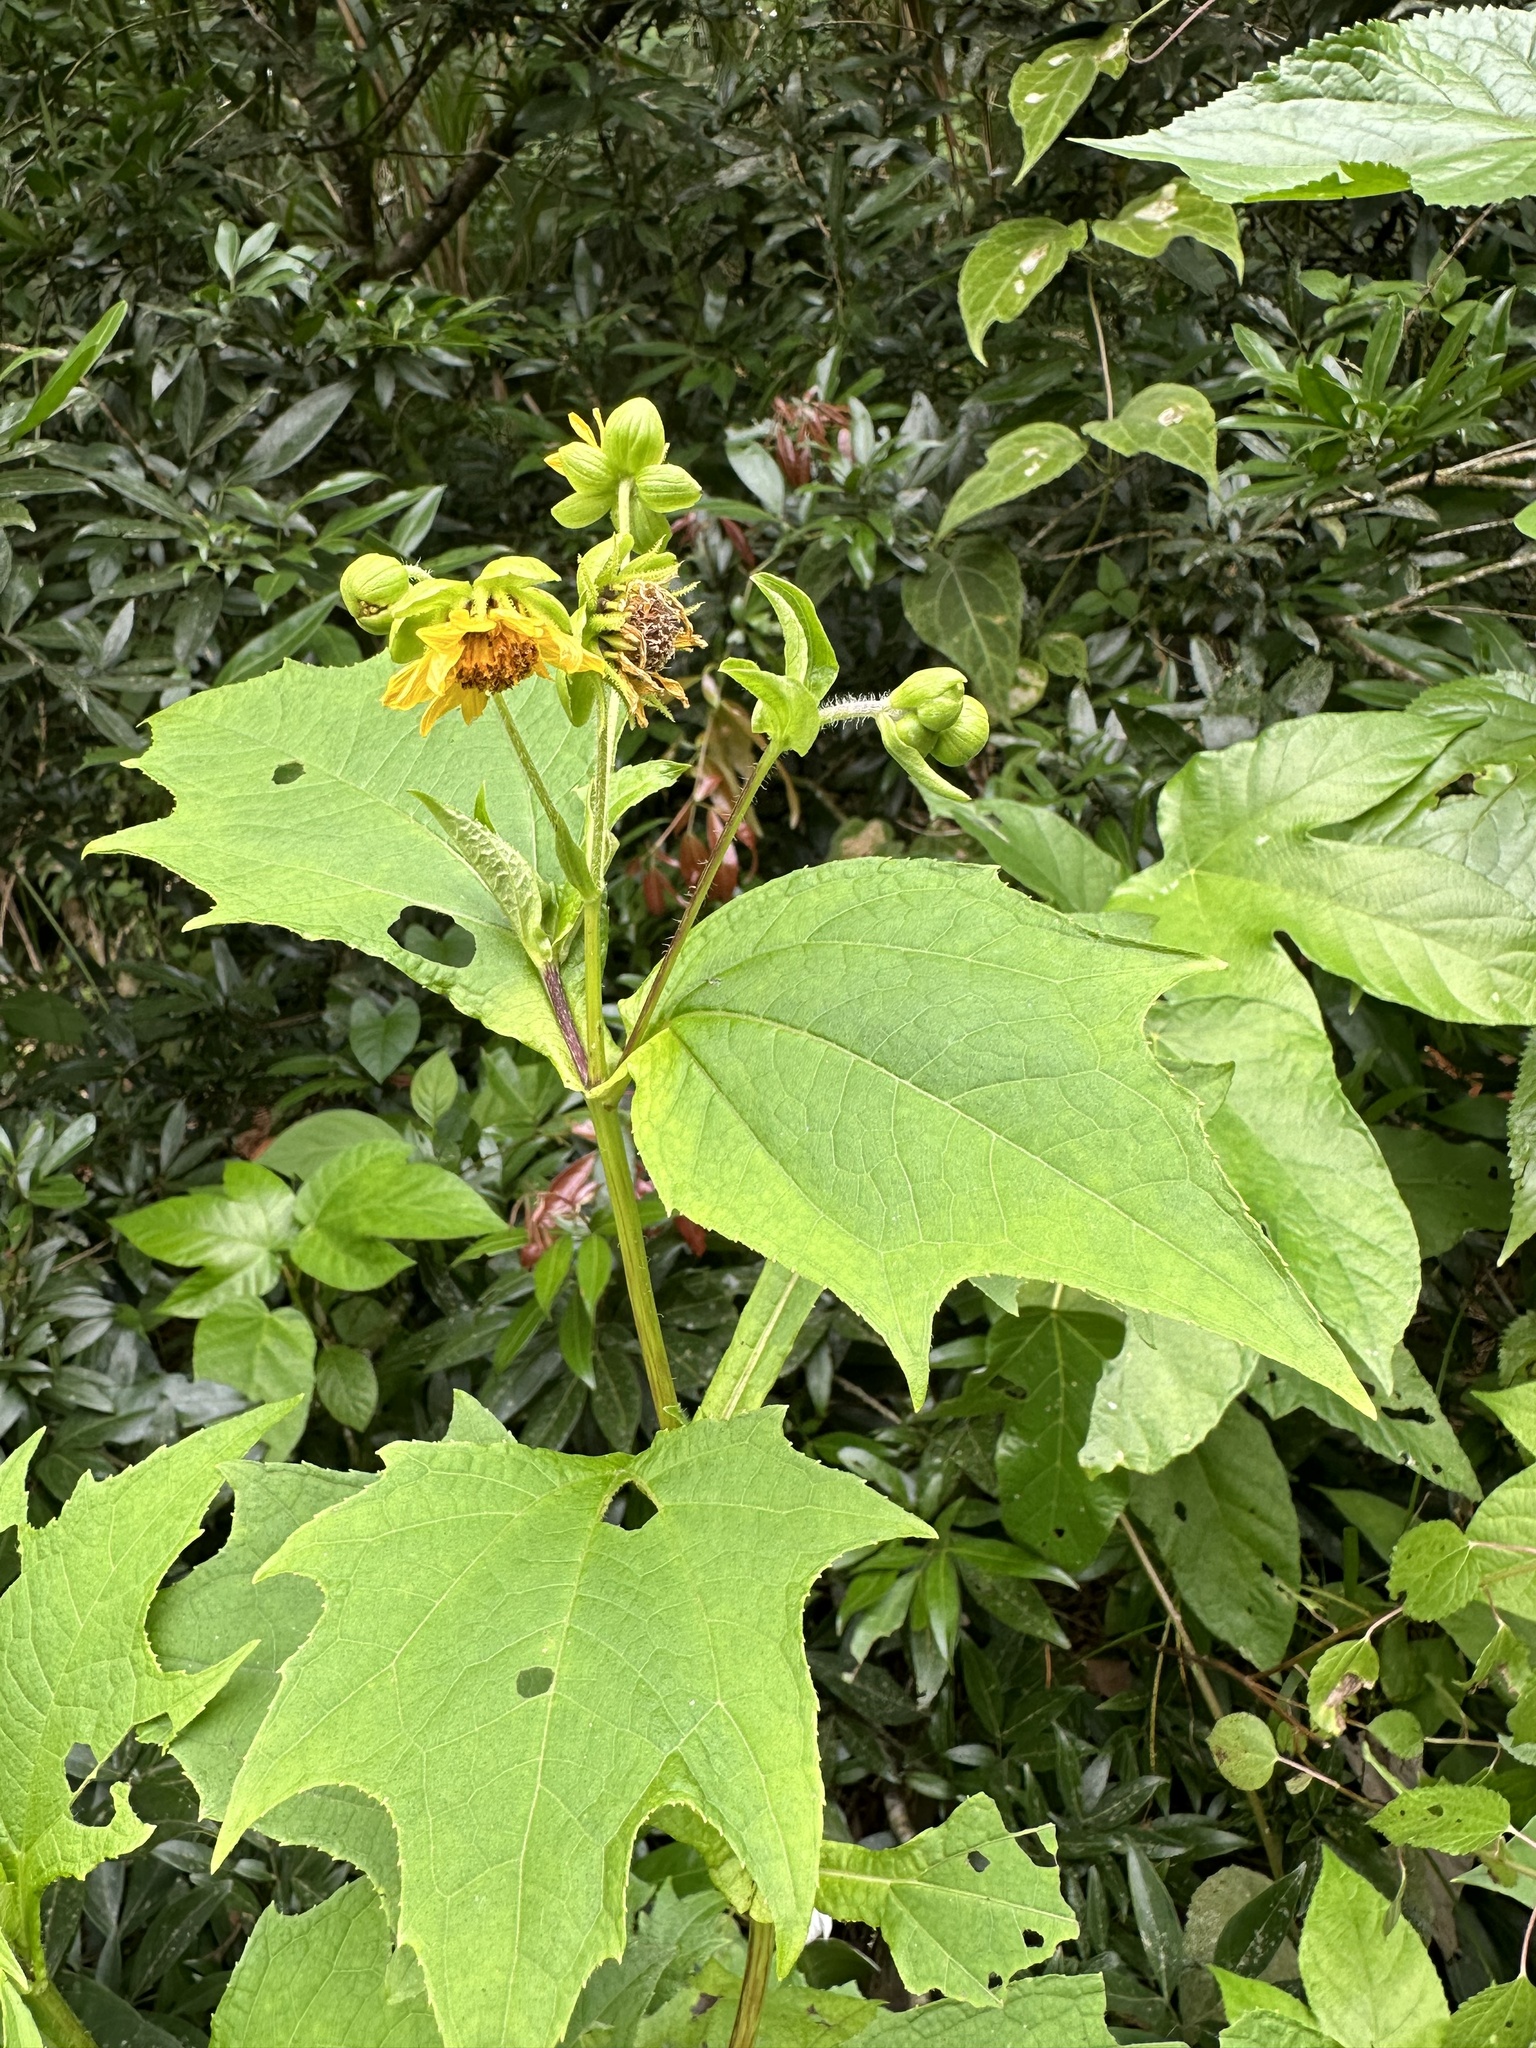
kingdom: Plantae
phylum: Tracheophyta
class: Magnoliopsida
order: Asterales
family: Asteraceae
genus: Smallanthus
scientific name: Smallanthus riparius
